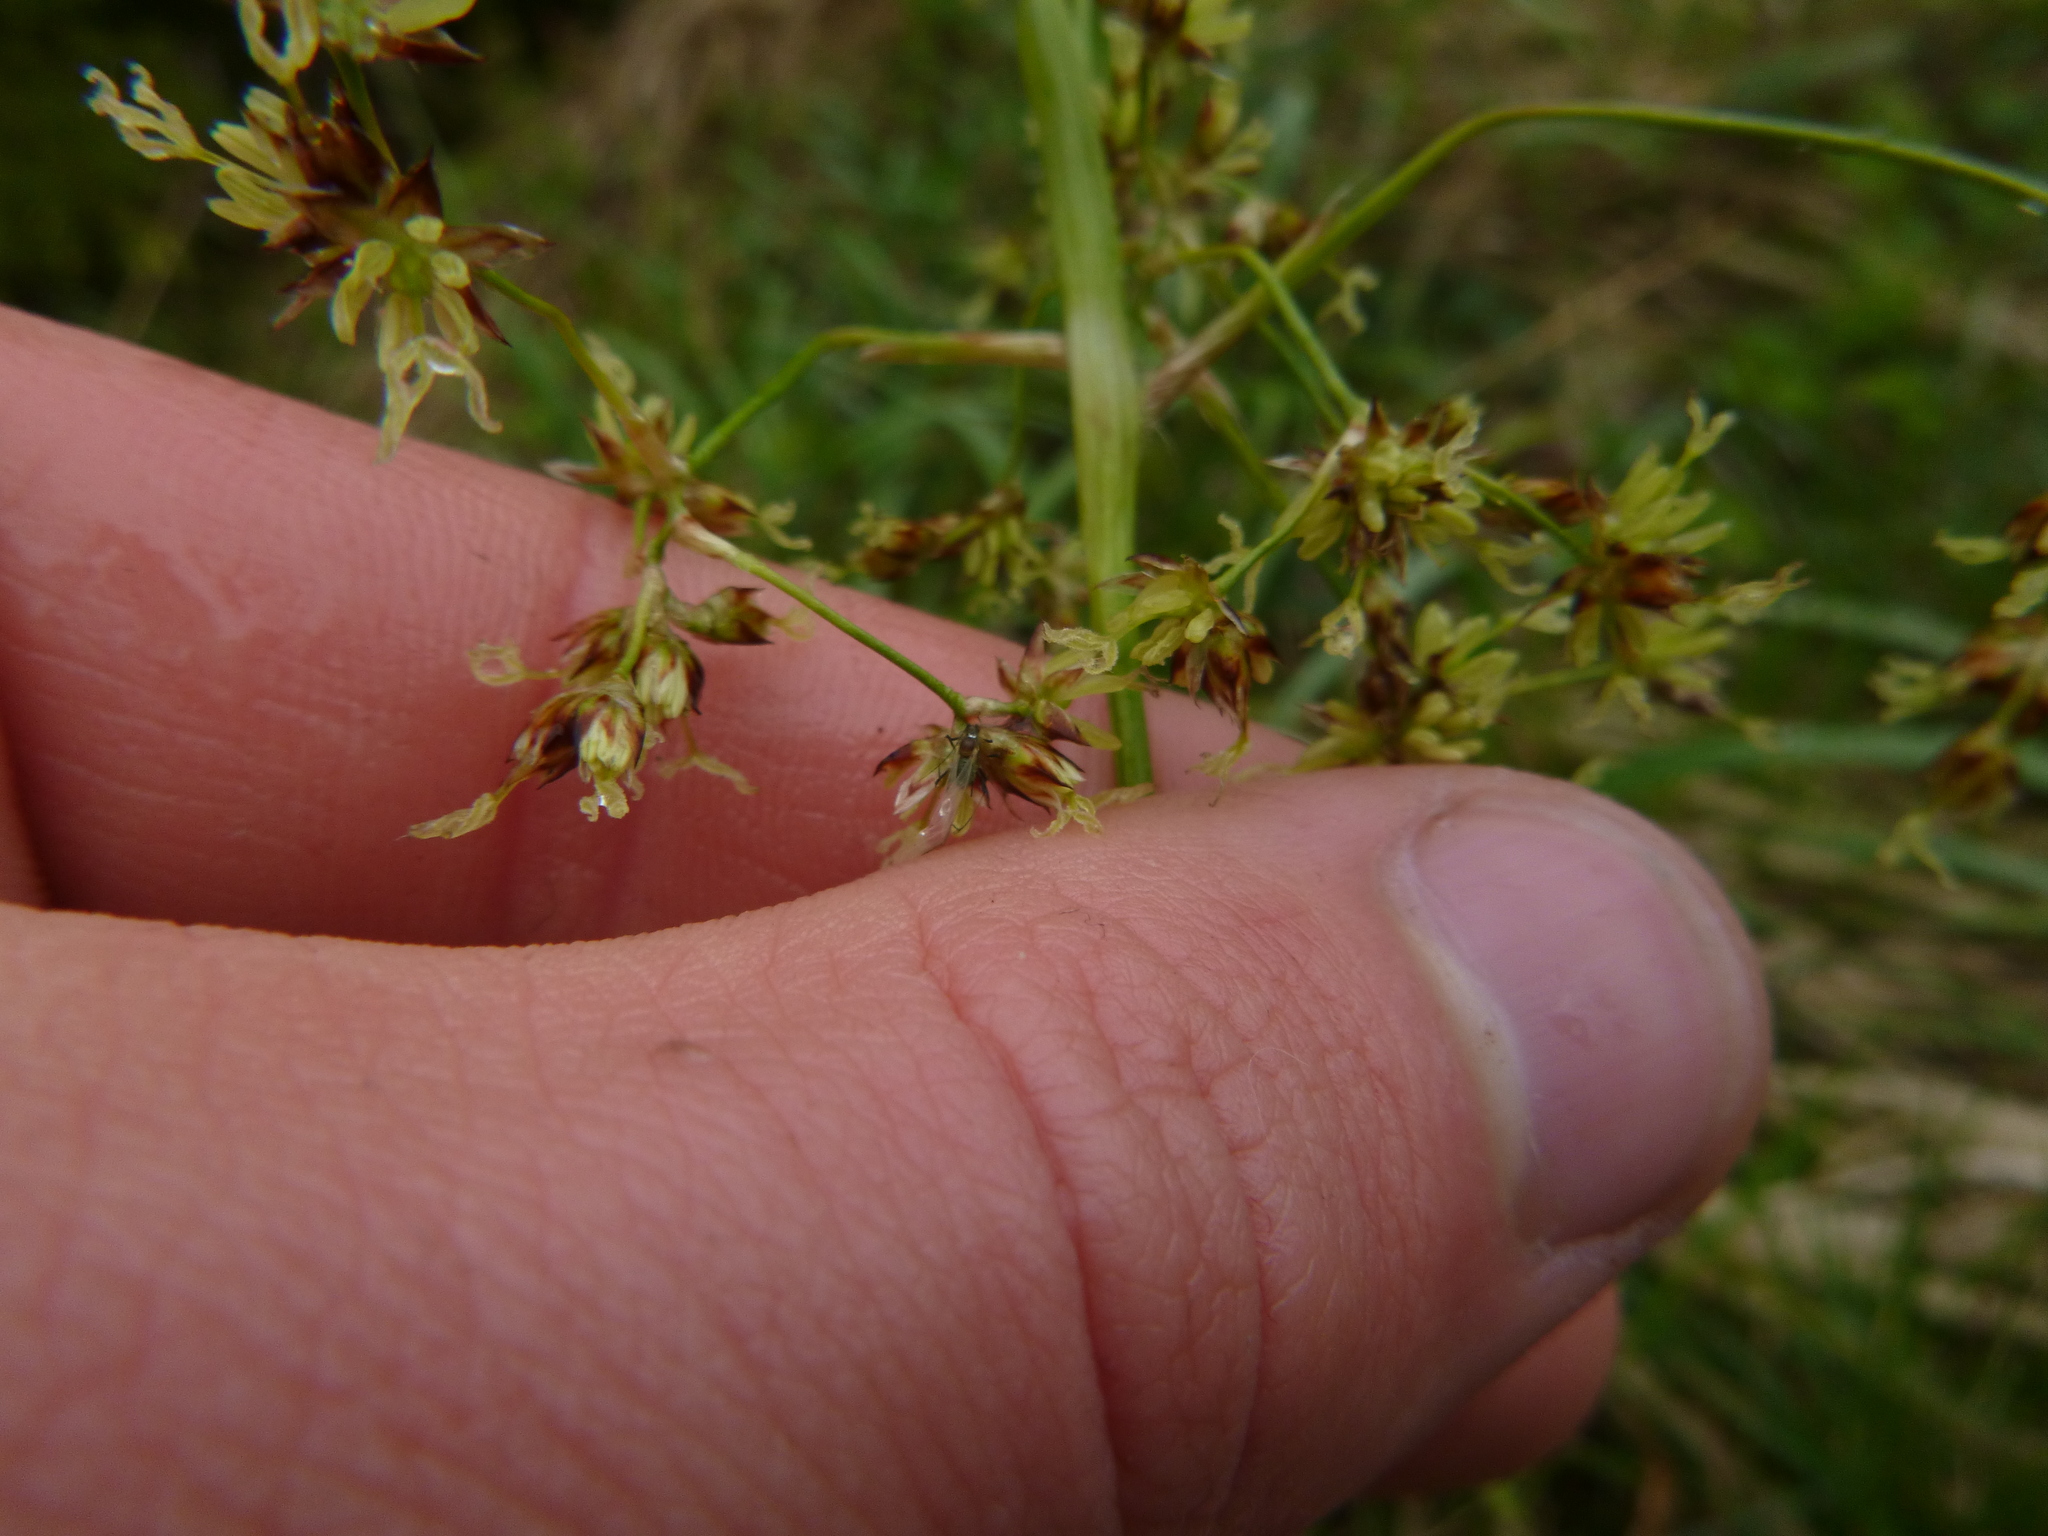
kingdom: Plantae
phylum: Tracheophyta
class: Liliopsida
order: Poales
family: Juncaceae
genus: Luzula
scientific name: Luzula sylvatica
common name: Great wood-rush
